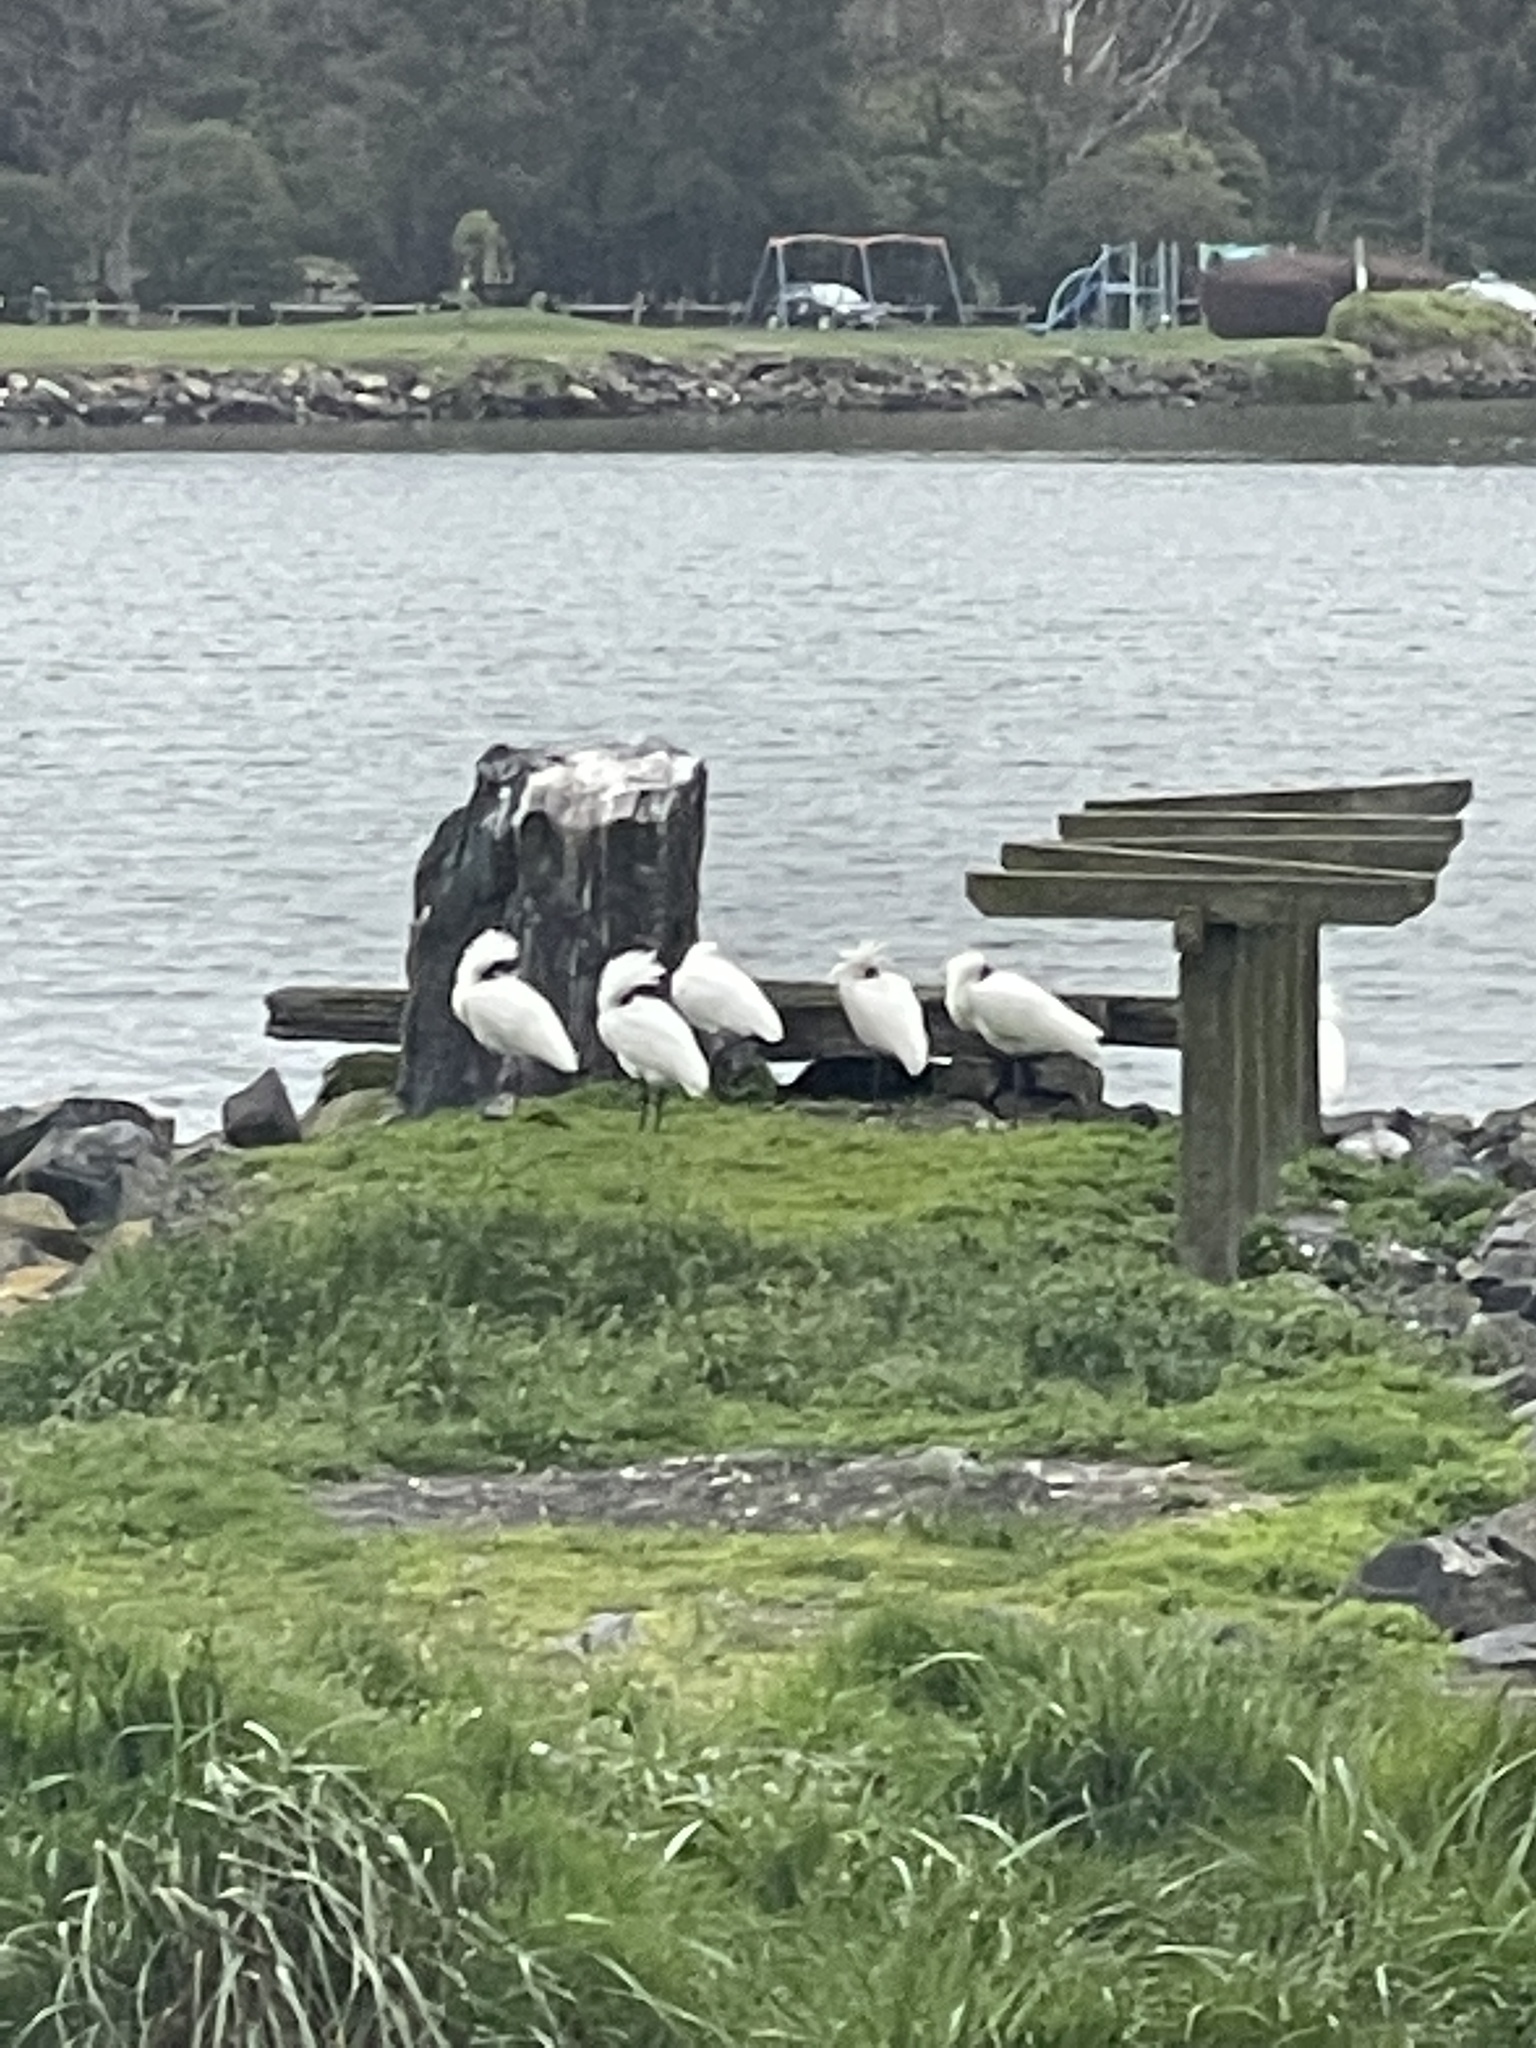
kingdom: Animalia
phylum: Chordata
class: Aves
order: Pelecaniformes
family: Threskiornithidae
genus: Platalea
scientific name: Platalea regia
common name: Royal spoonbill
